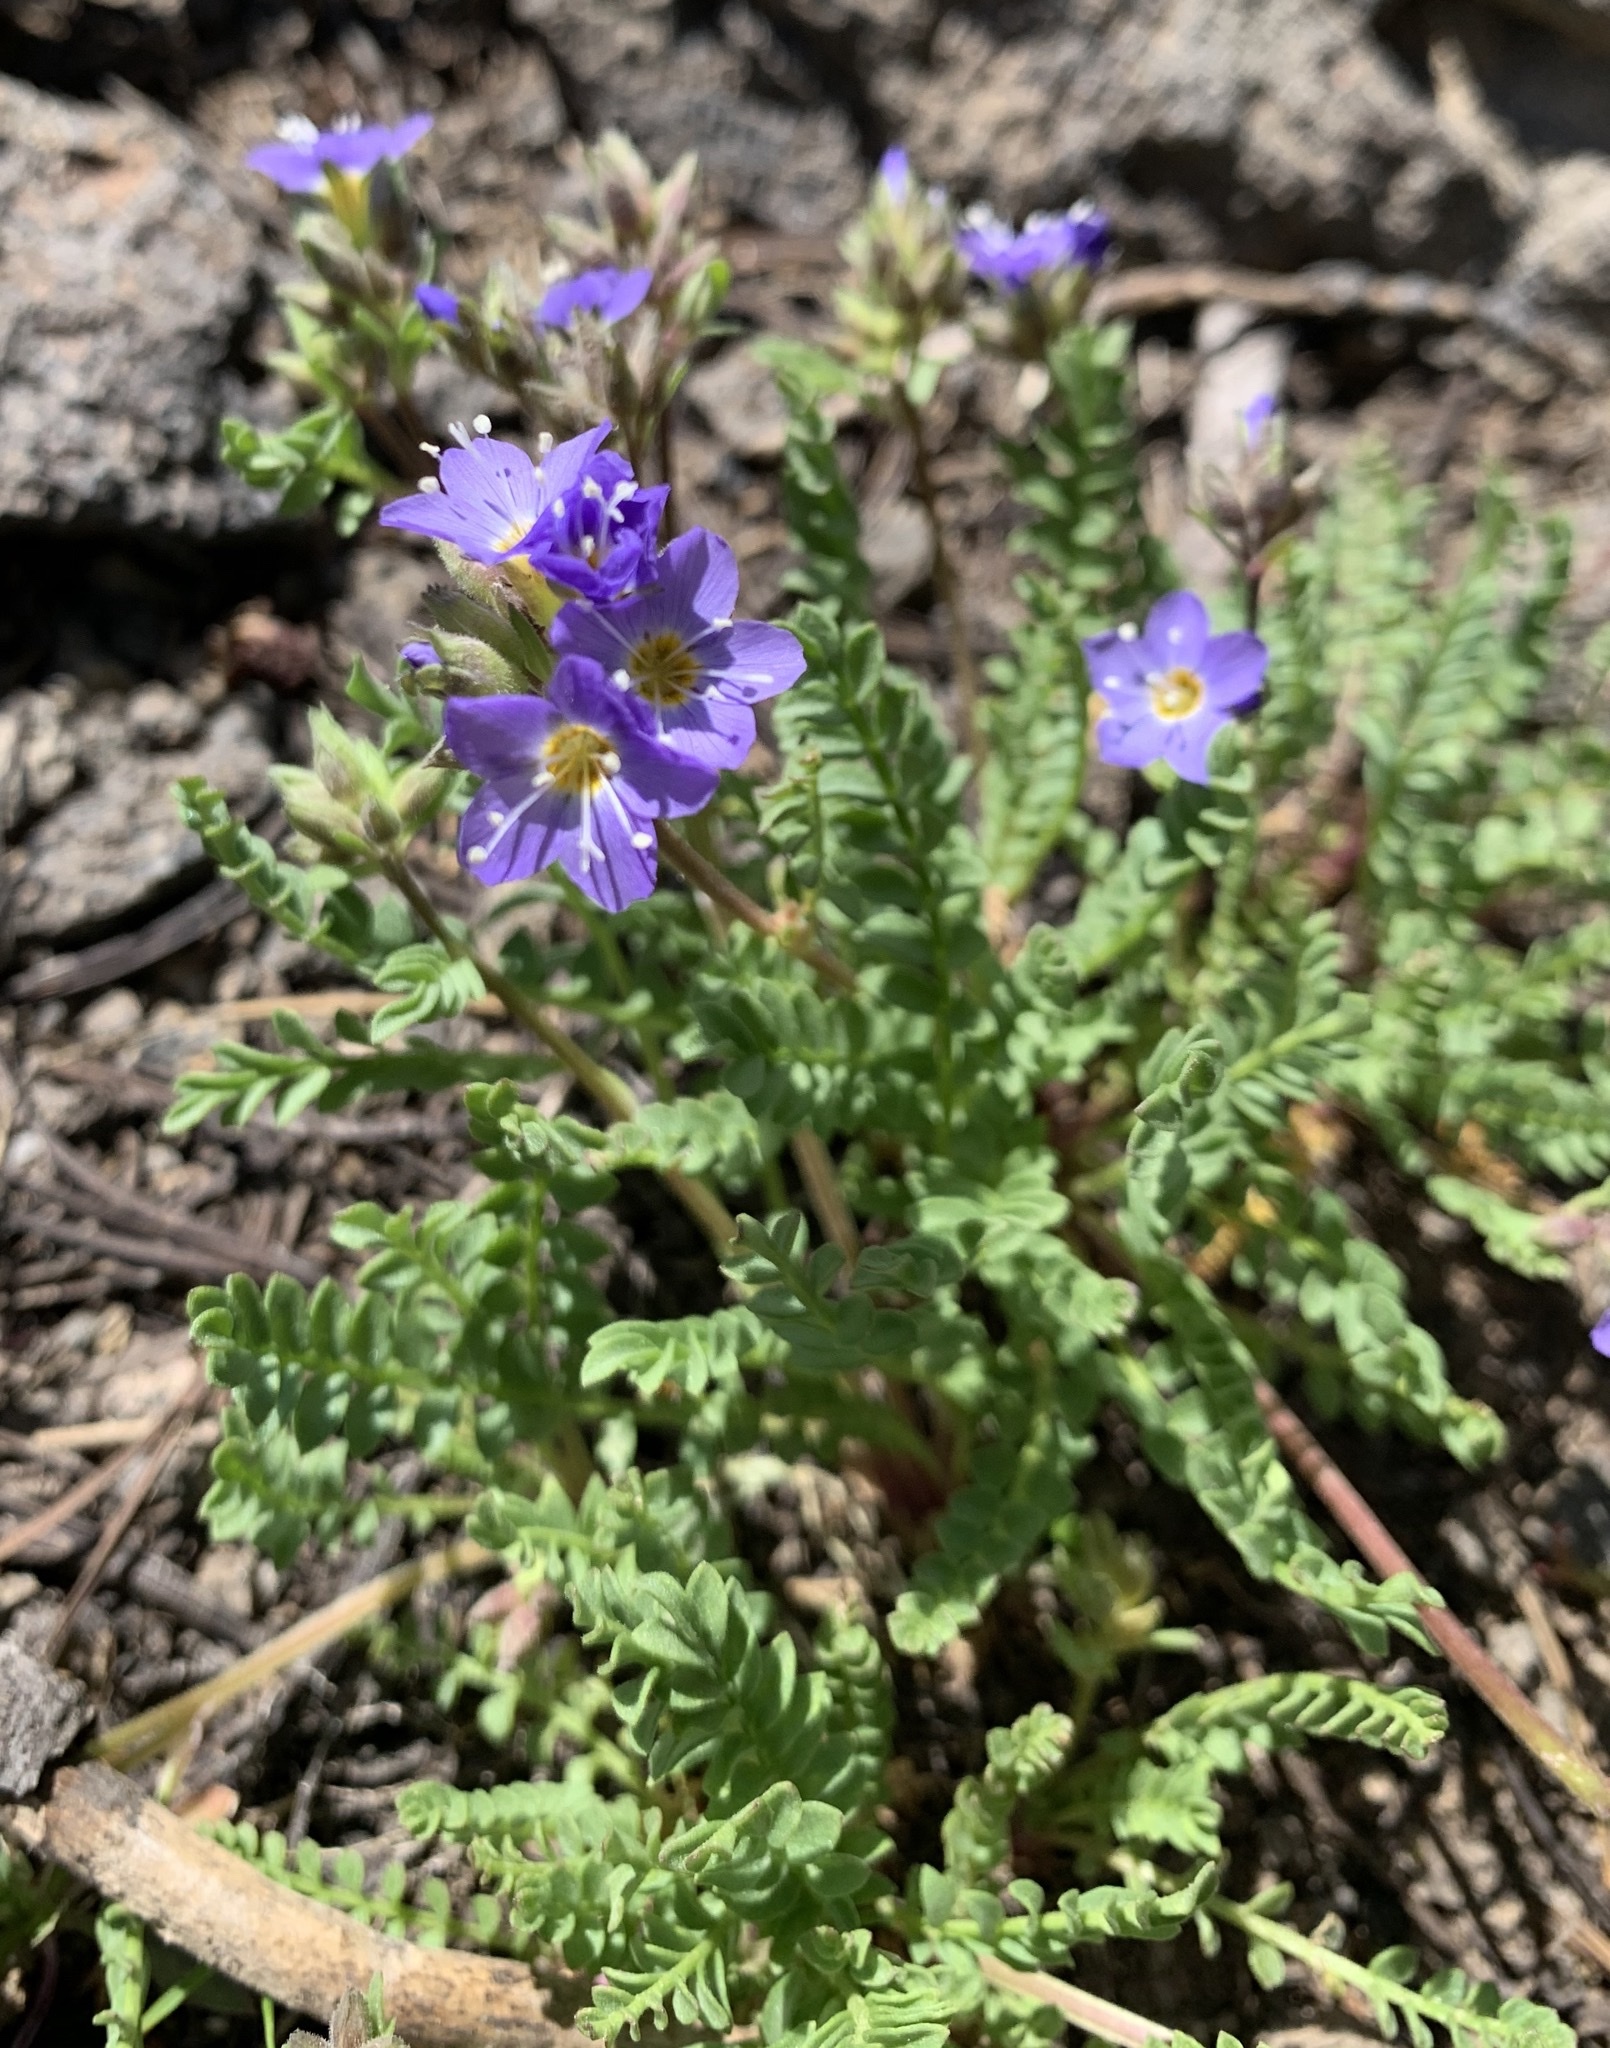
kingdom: Plantae
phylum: Tracheophyta
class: Magnoliopsida
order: Ericales
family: Polemoniaceae
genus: Polemonium
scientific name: Polemonium pulcherrimum
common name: Short jacob's-ladder
